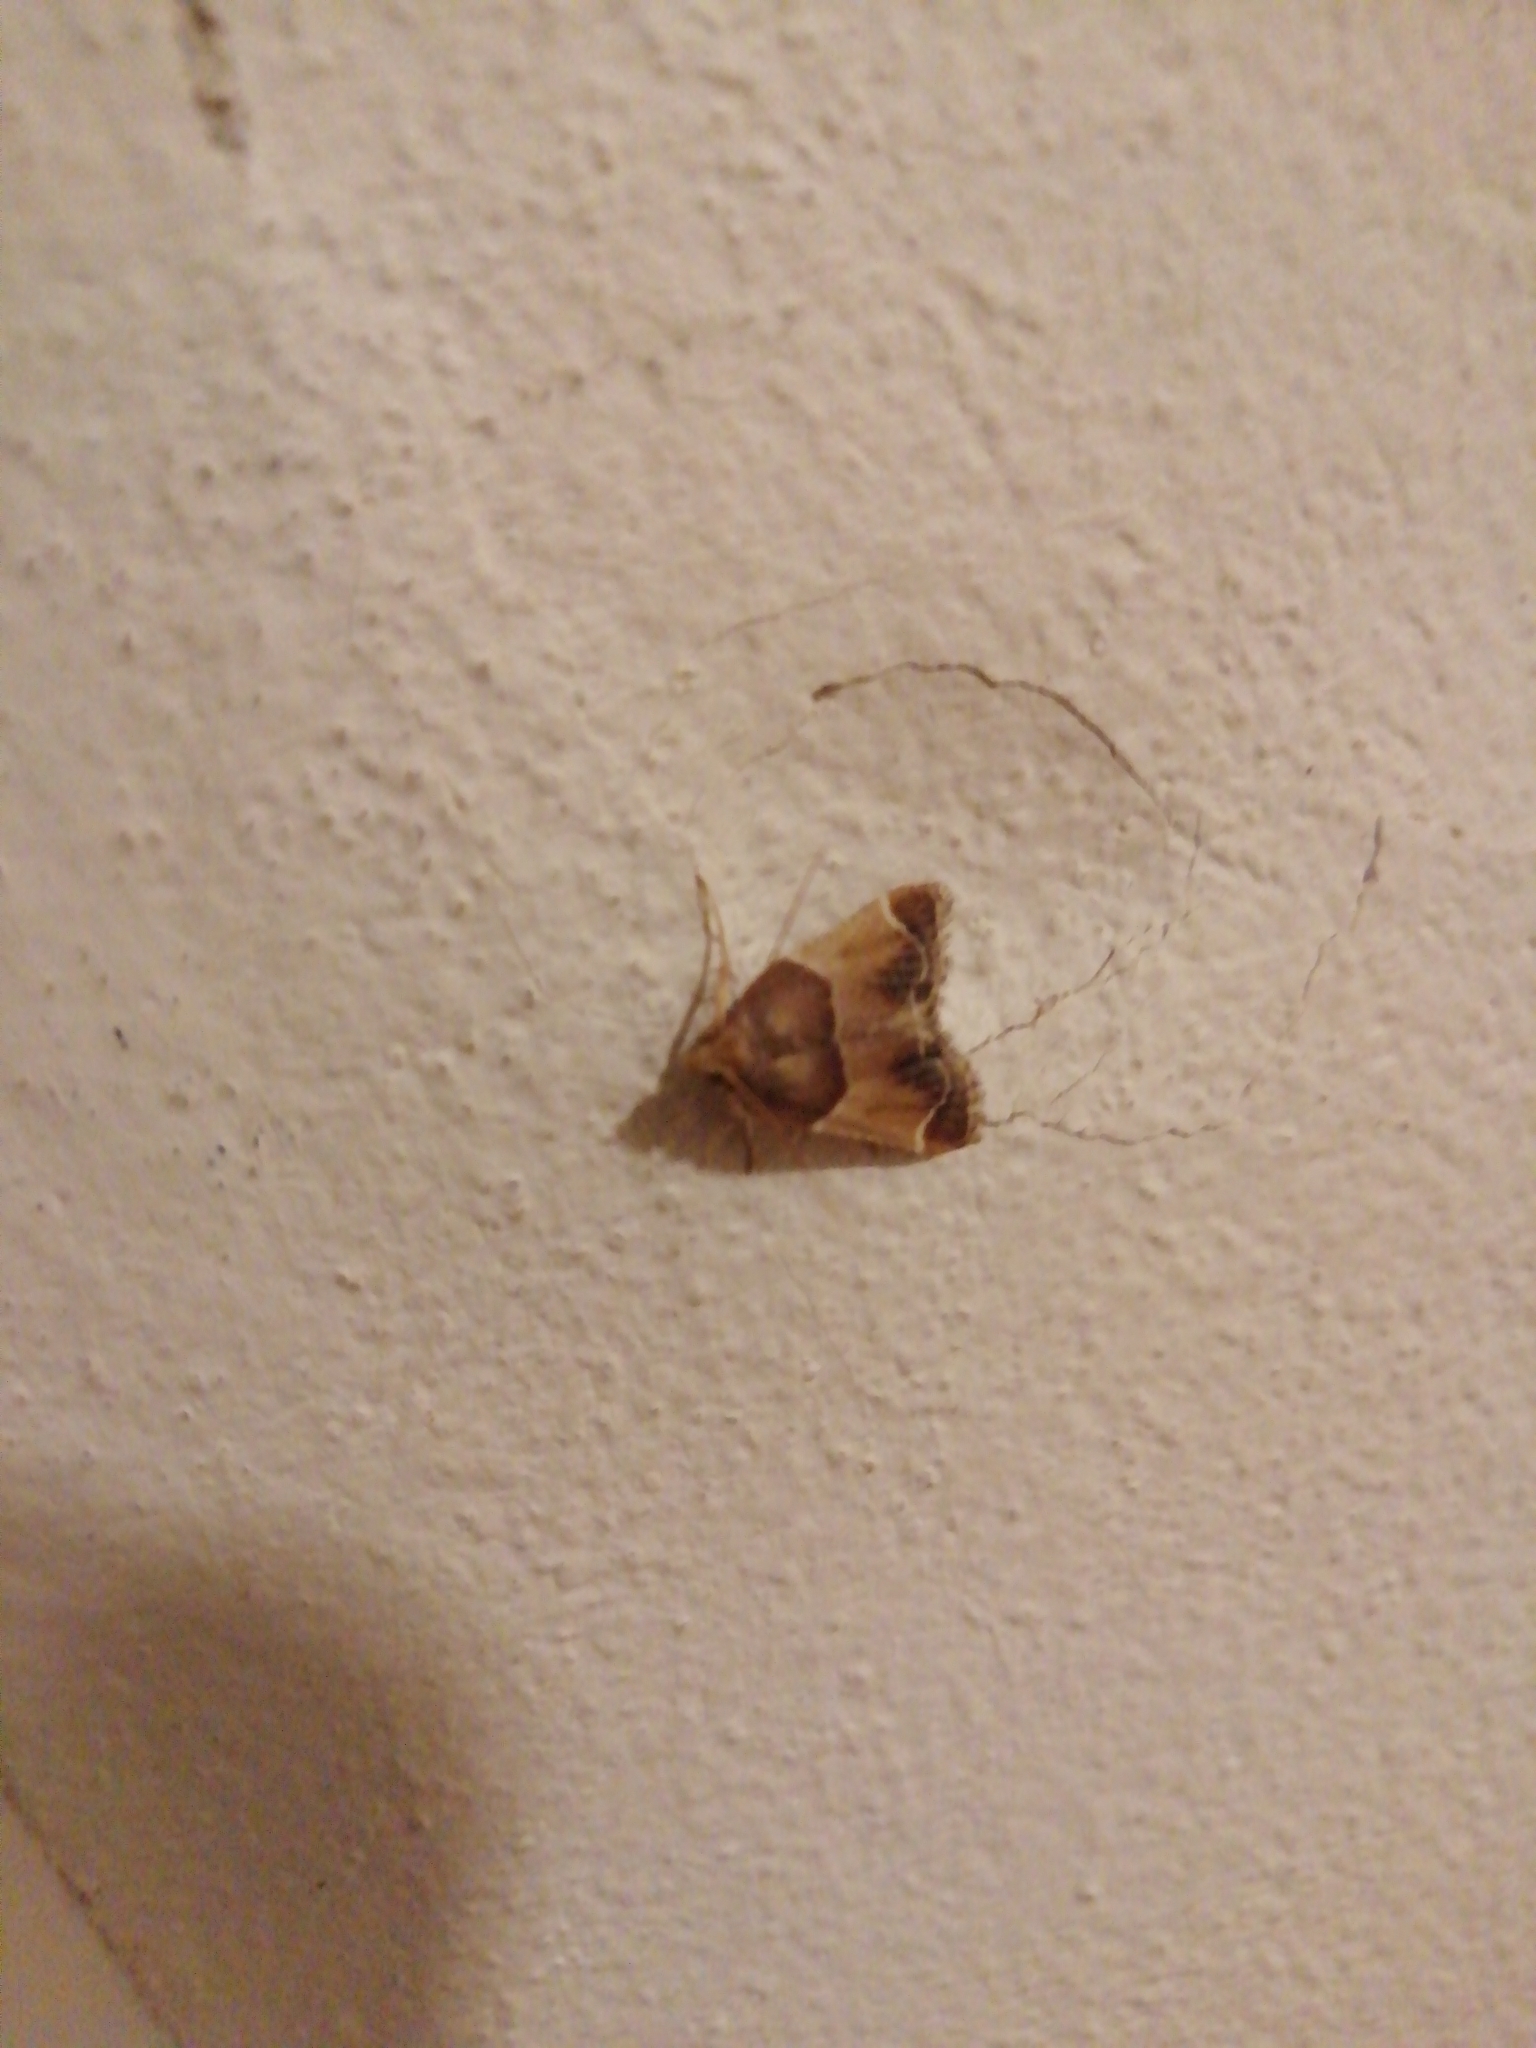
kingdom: Animalia
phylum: Arthropoda
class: Insecta
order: Lepidoptera
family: Pyralidae
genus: Pyralis
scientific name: Pyralis farinalis
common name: Meal moth
